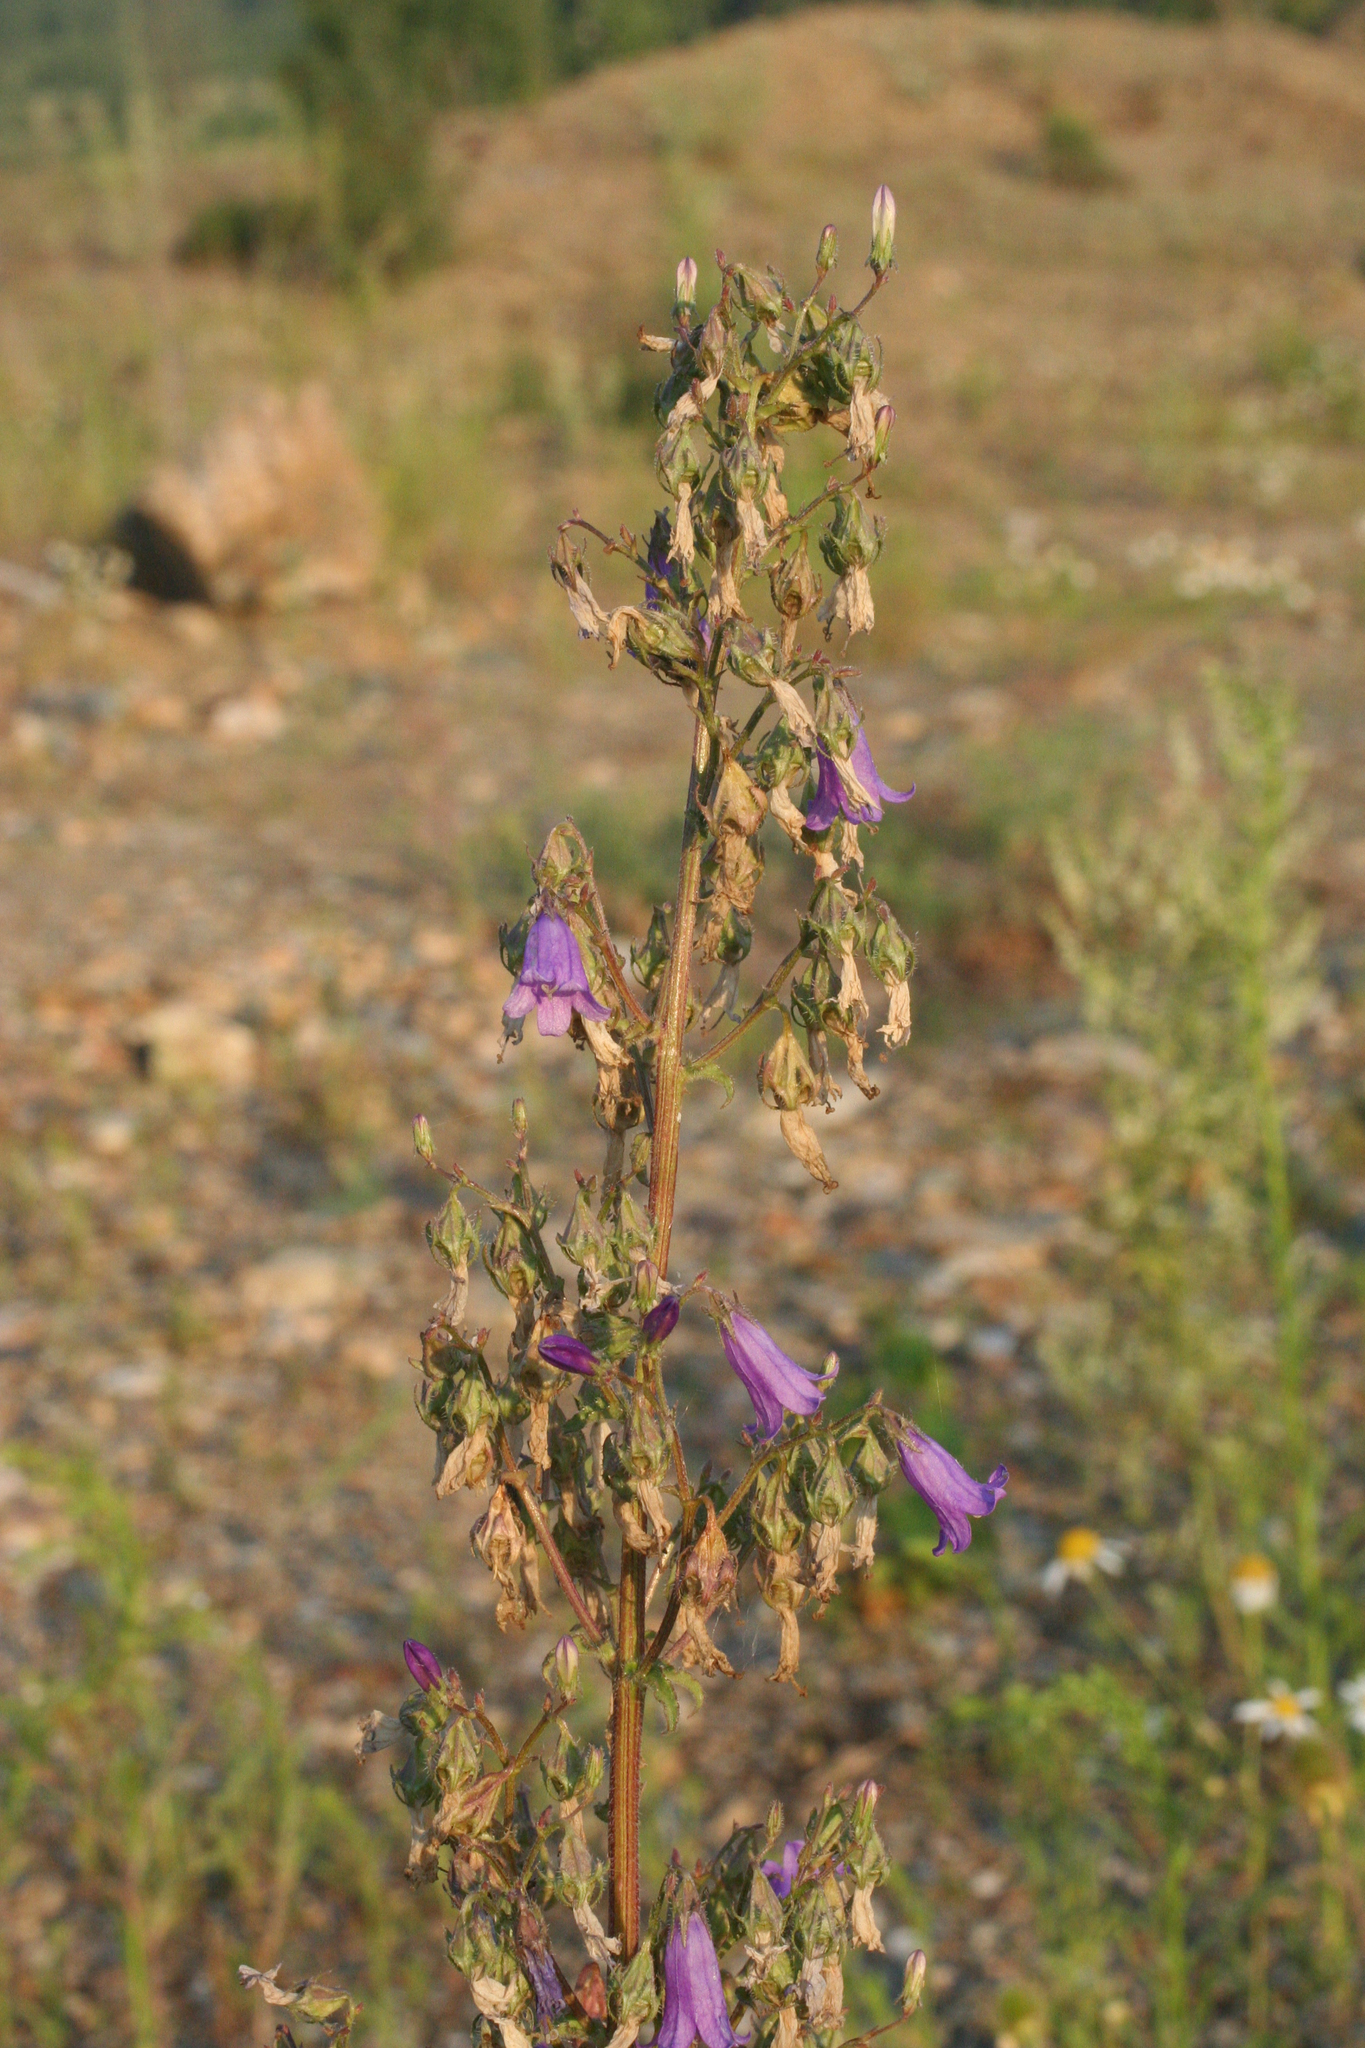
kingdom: Plantae
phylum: Tracheophyta
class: Magnoliopsida
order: Asterales
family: Campanulaceae
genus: Campanula
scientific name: Campanula sibirica
